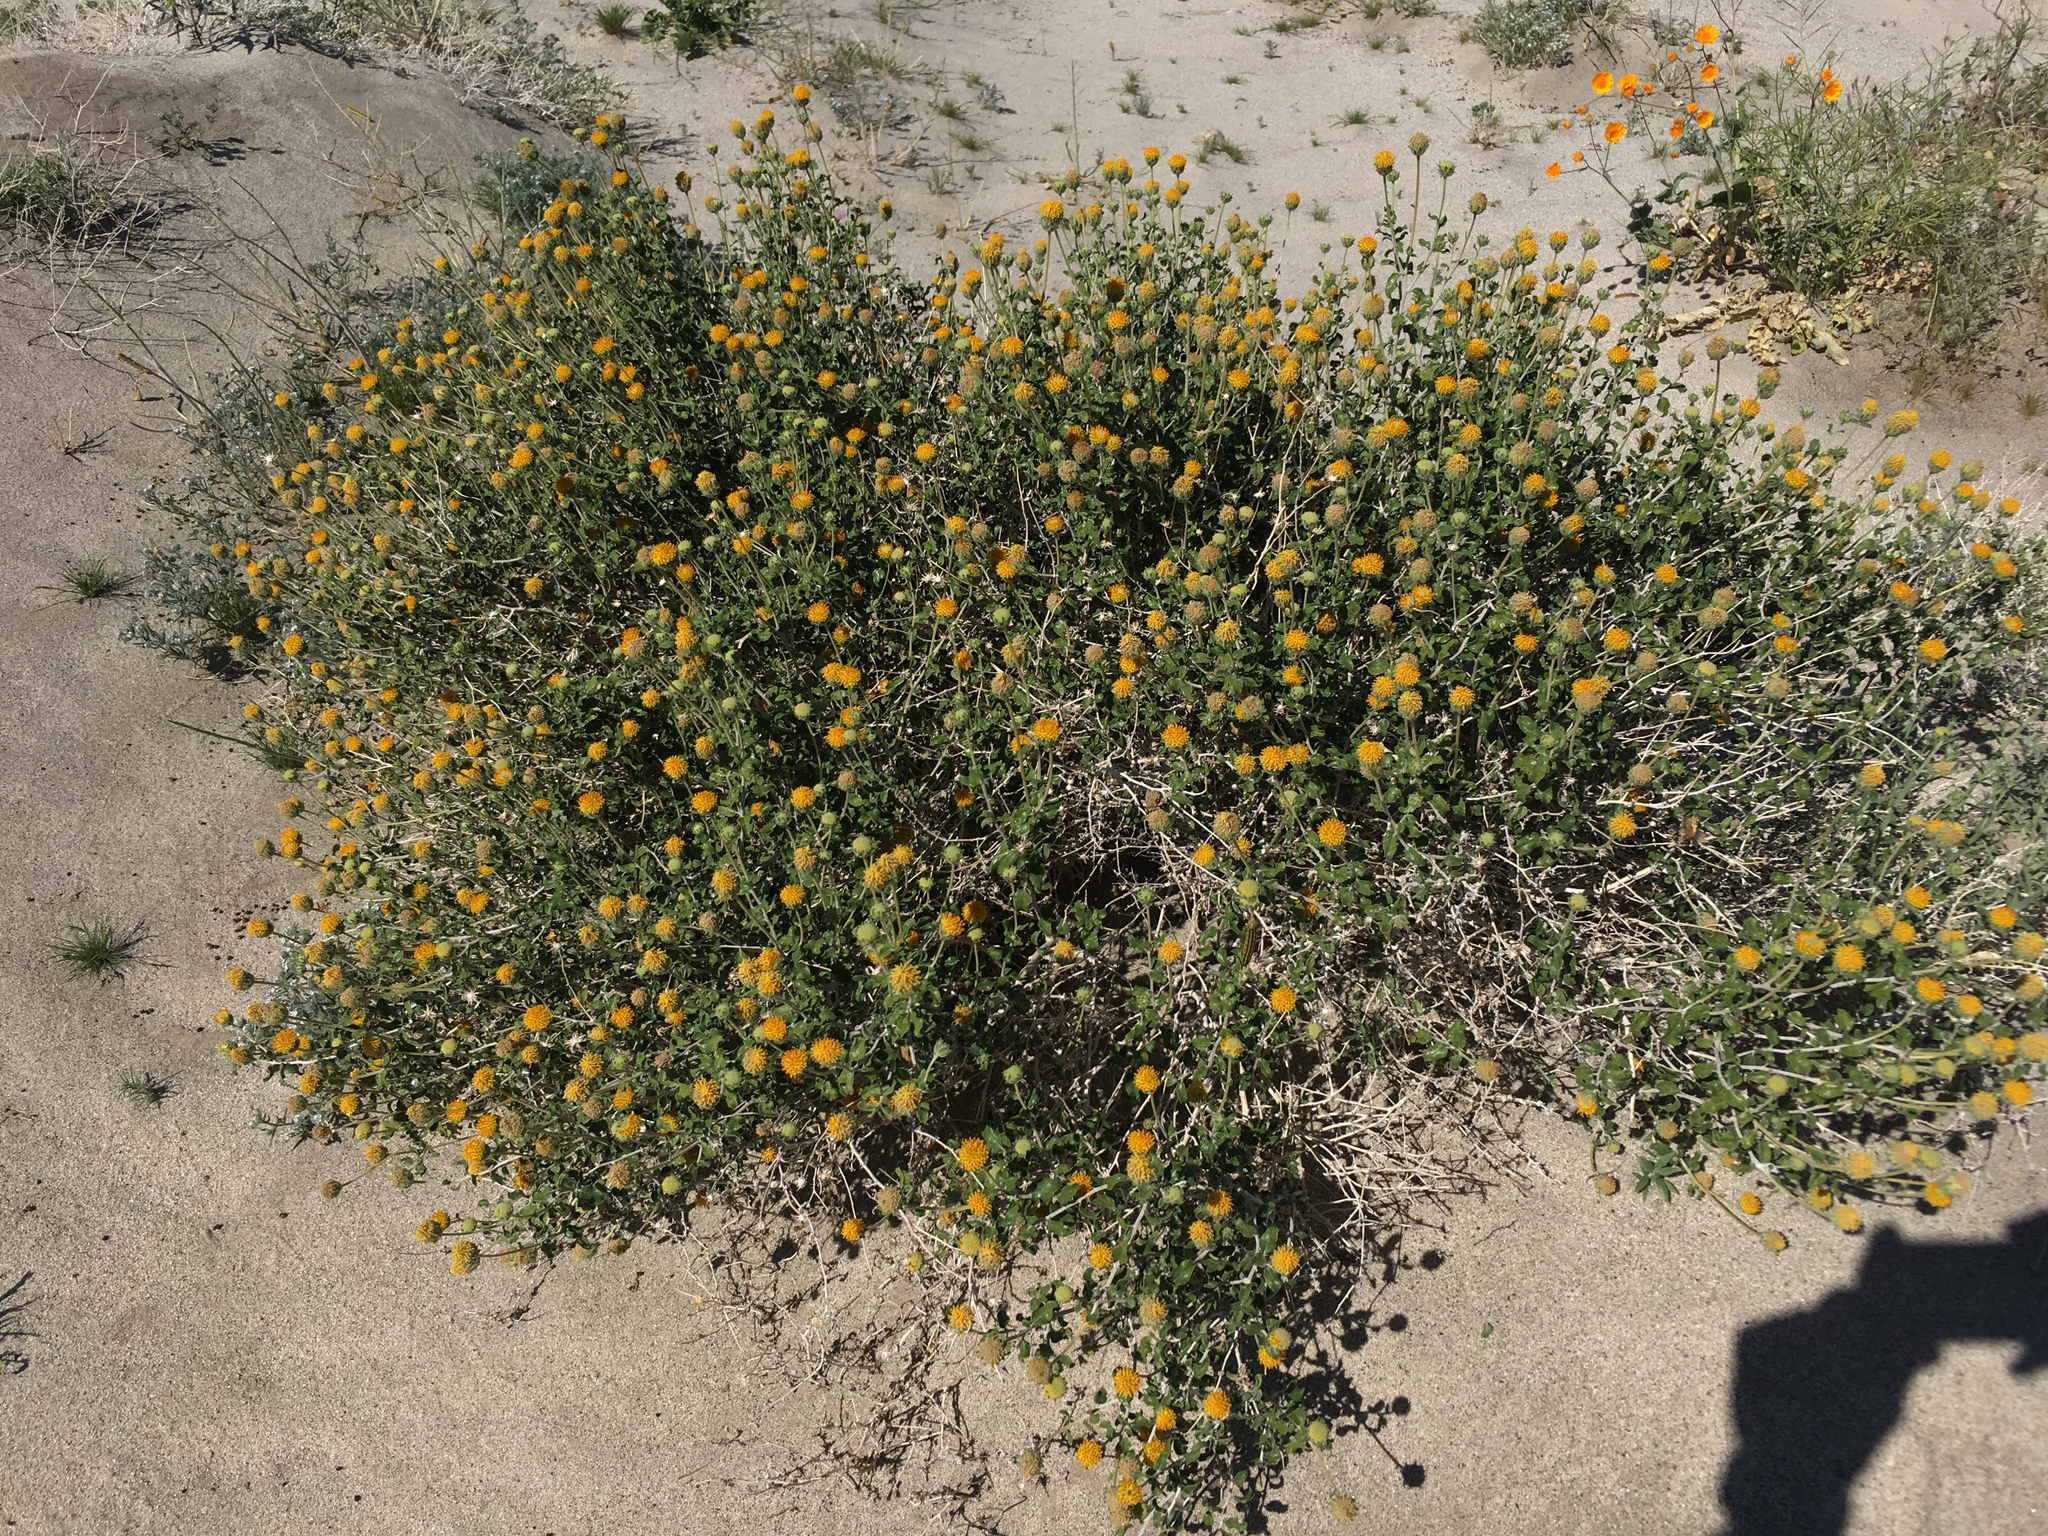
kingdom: Plantae
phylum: Tracheophyta
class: Magnoliopsida
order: Asterales
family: Asteraceae
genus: Encelia
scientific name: Encelia frutescens
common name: Bush encelia
